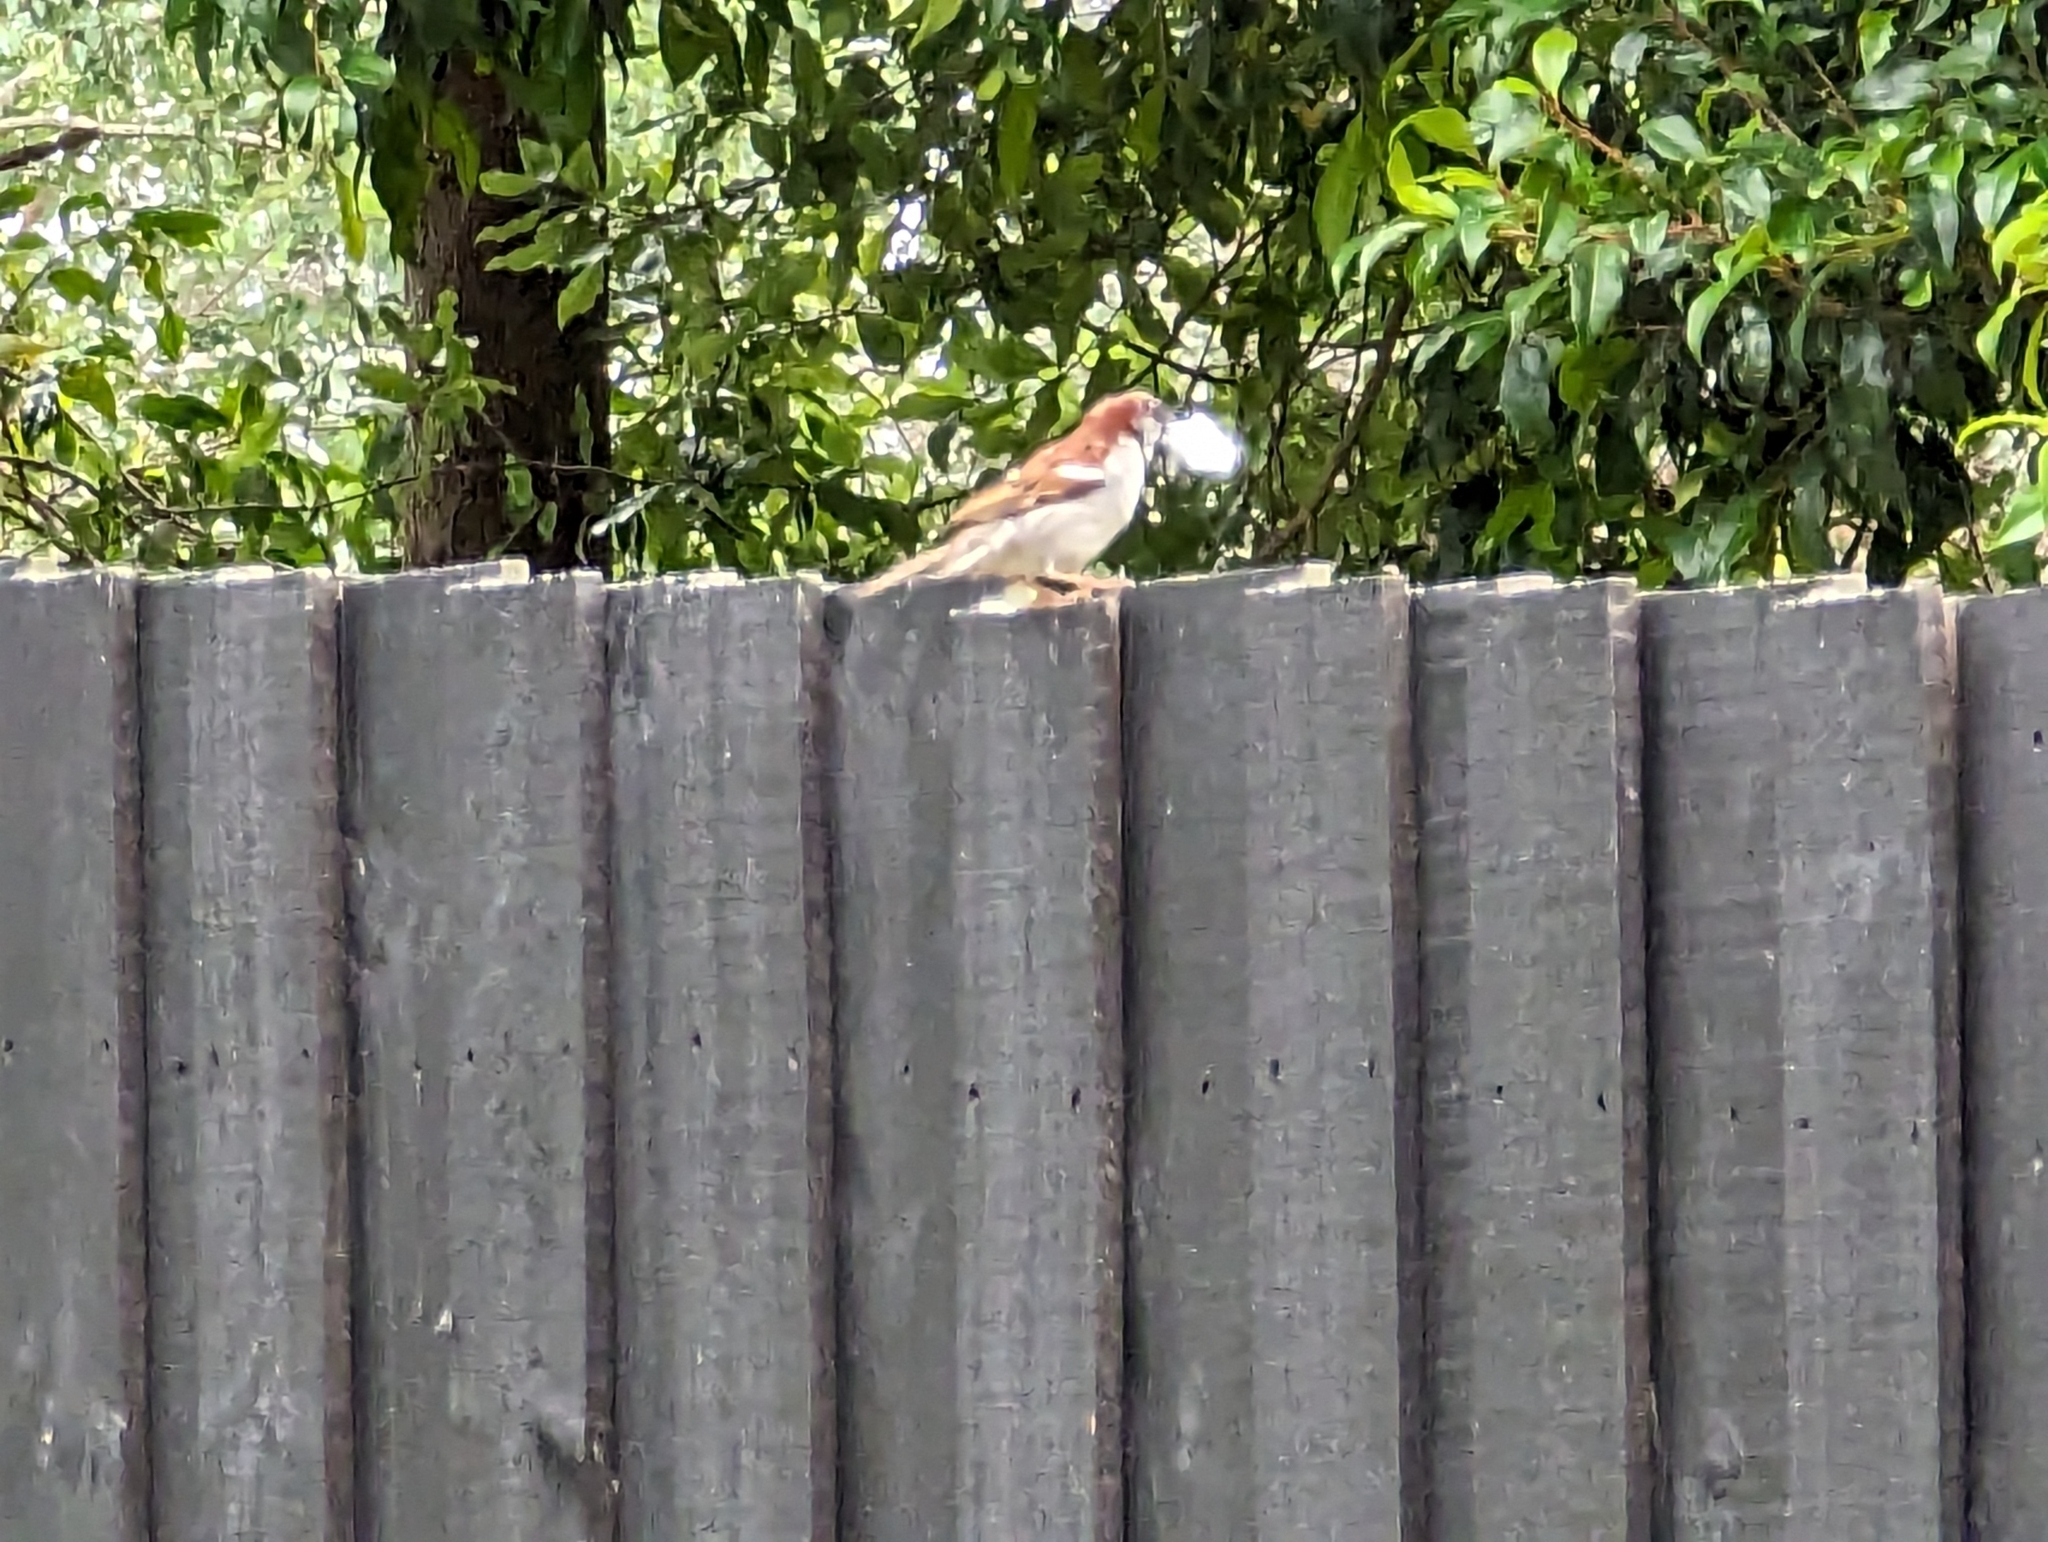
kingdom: Animalia
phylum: Chordata
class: Aves
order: Passeriformes
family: Passeridae
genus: Passer
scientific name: Passer domesticus
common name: House sparrow
